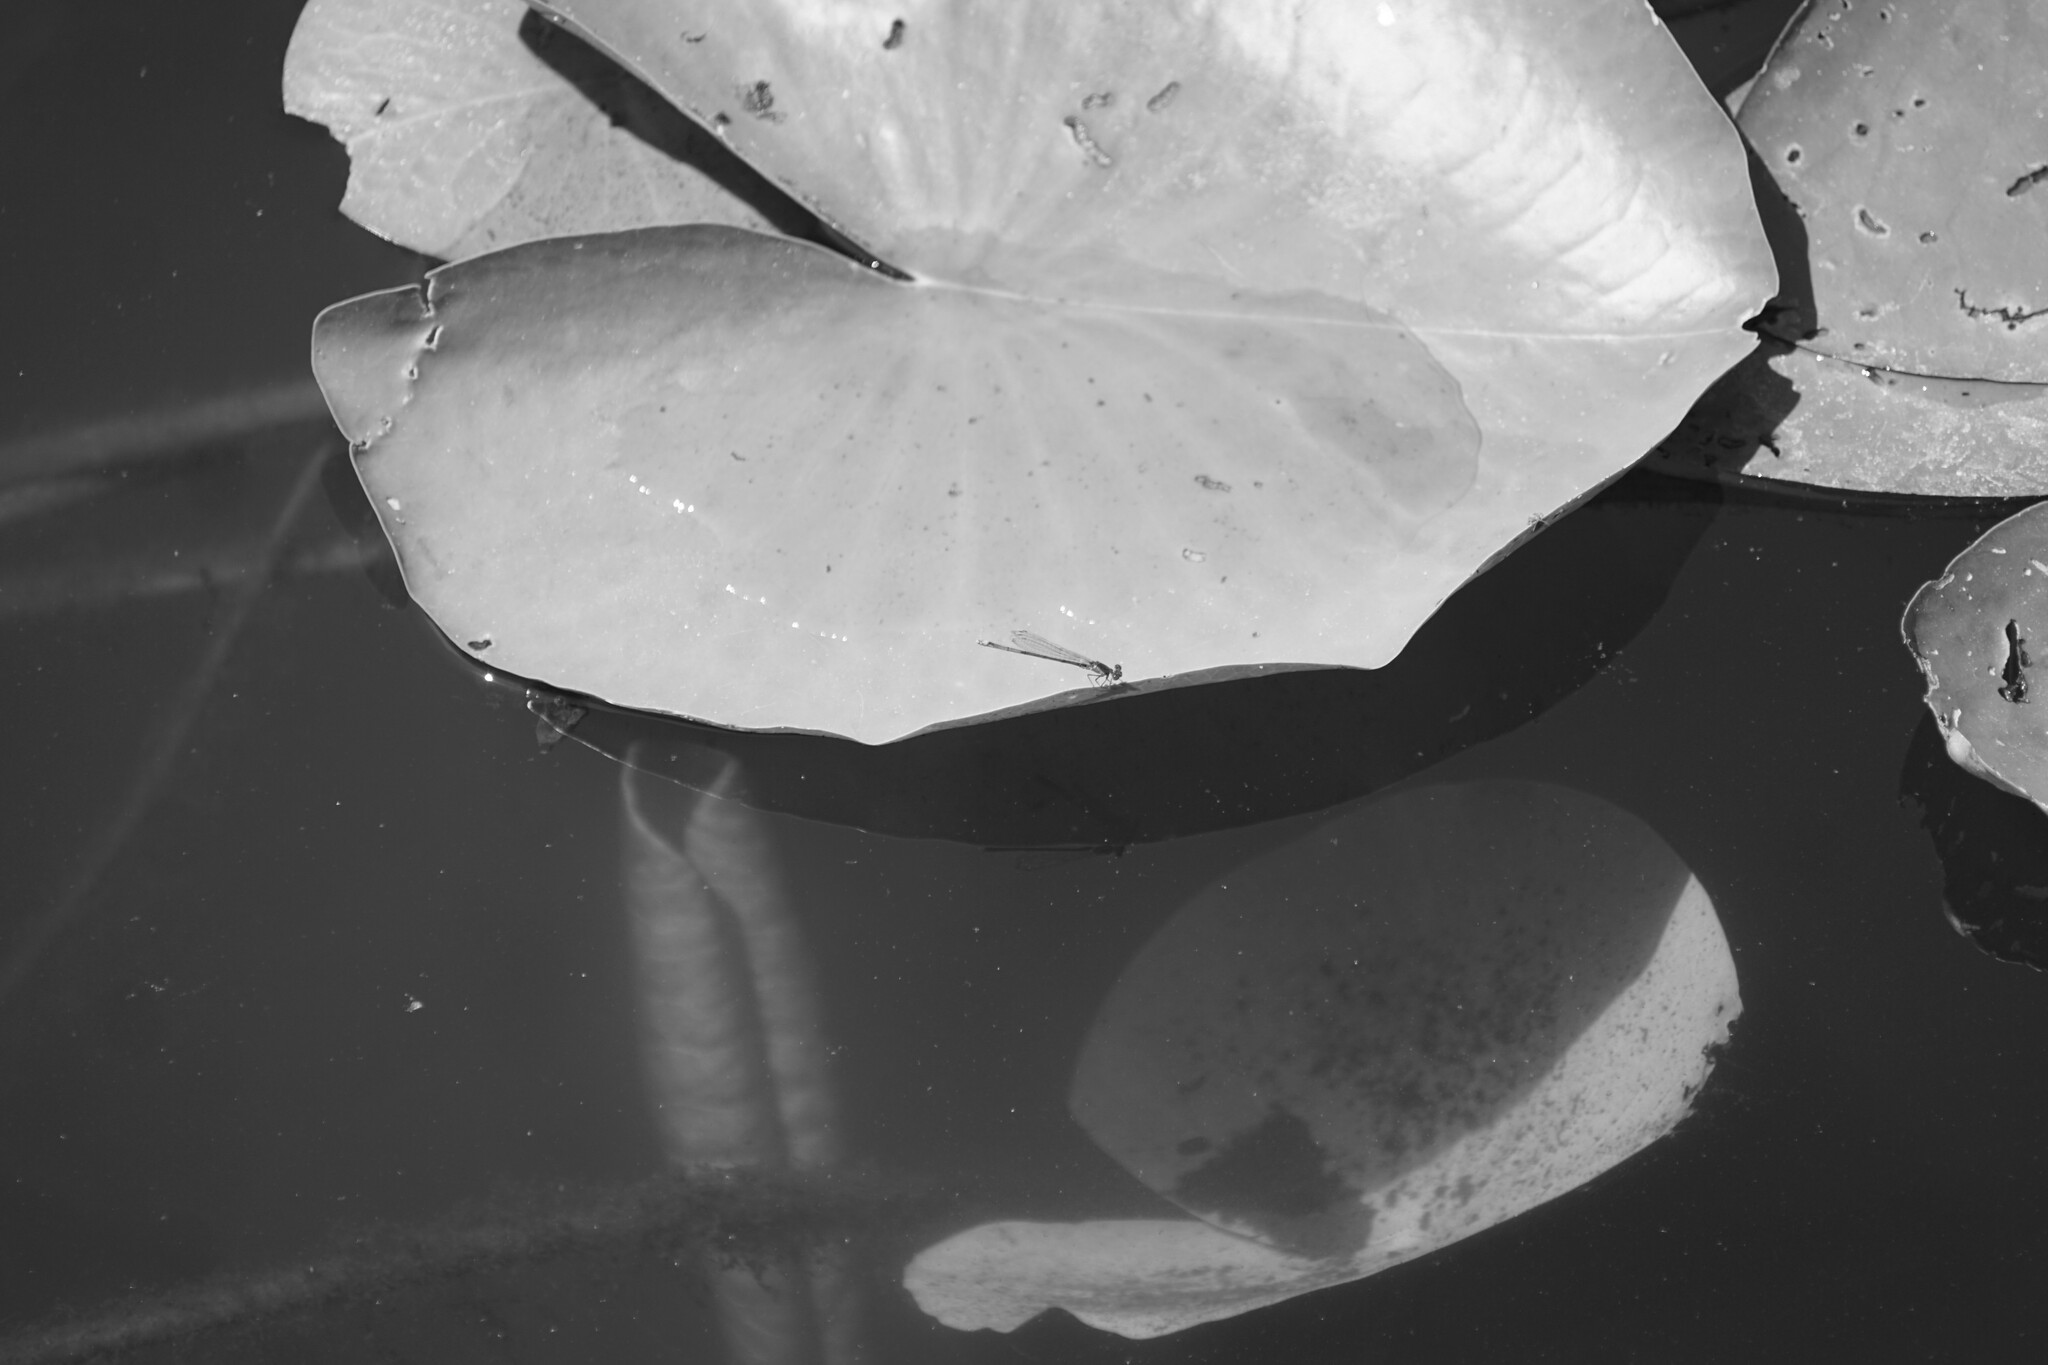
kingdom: Animalia
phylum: Arthropoda
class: Insecta
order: Odonata
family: Coenagrionidae
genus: Erythromma
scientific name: Erythromma viridulum
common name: Small red-eyed damselfly
